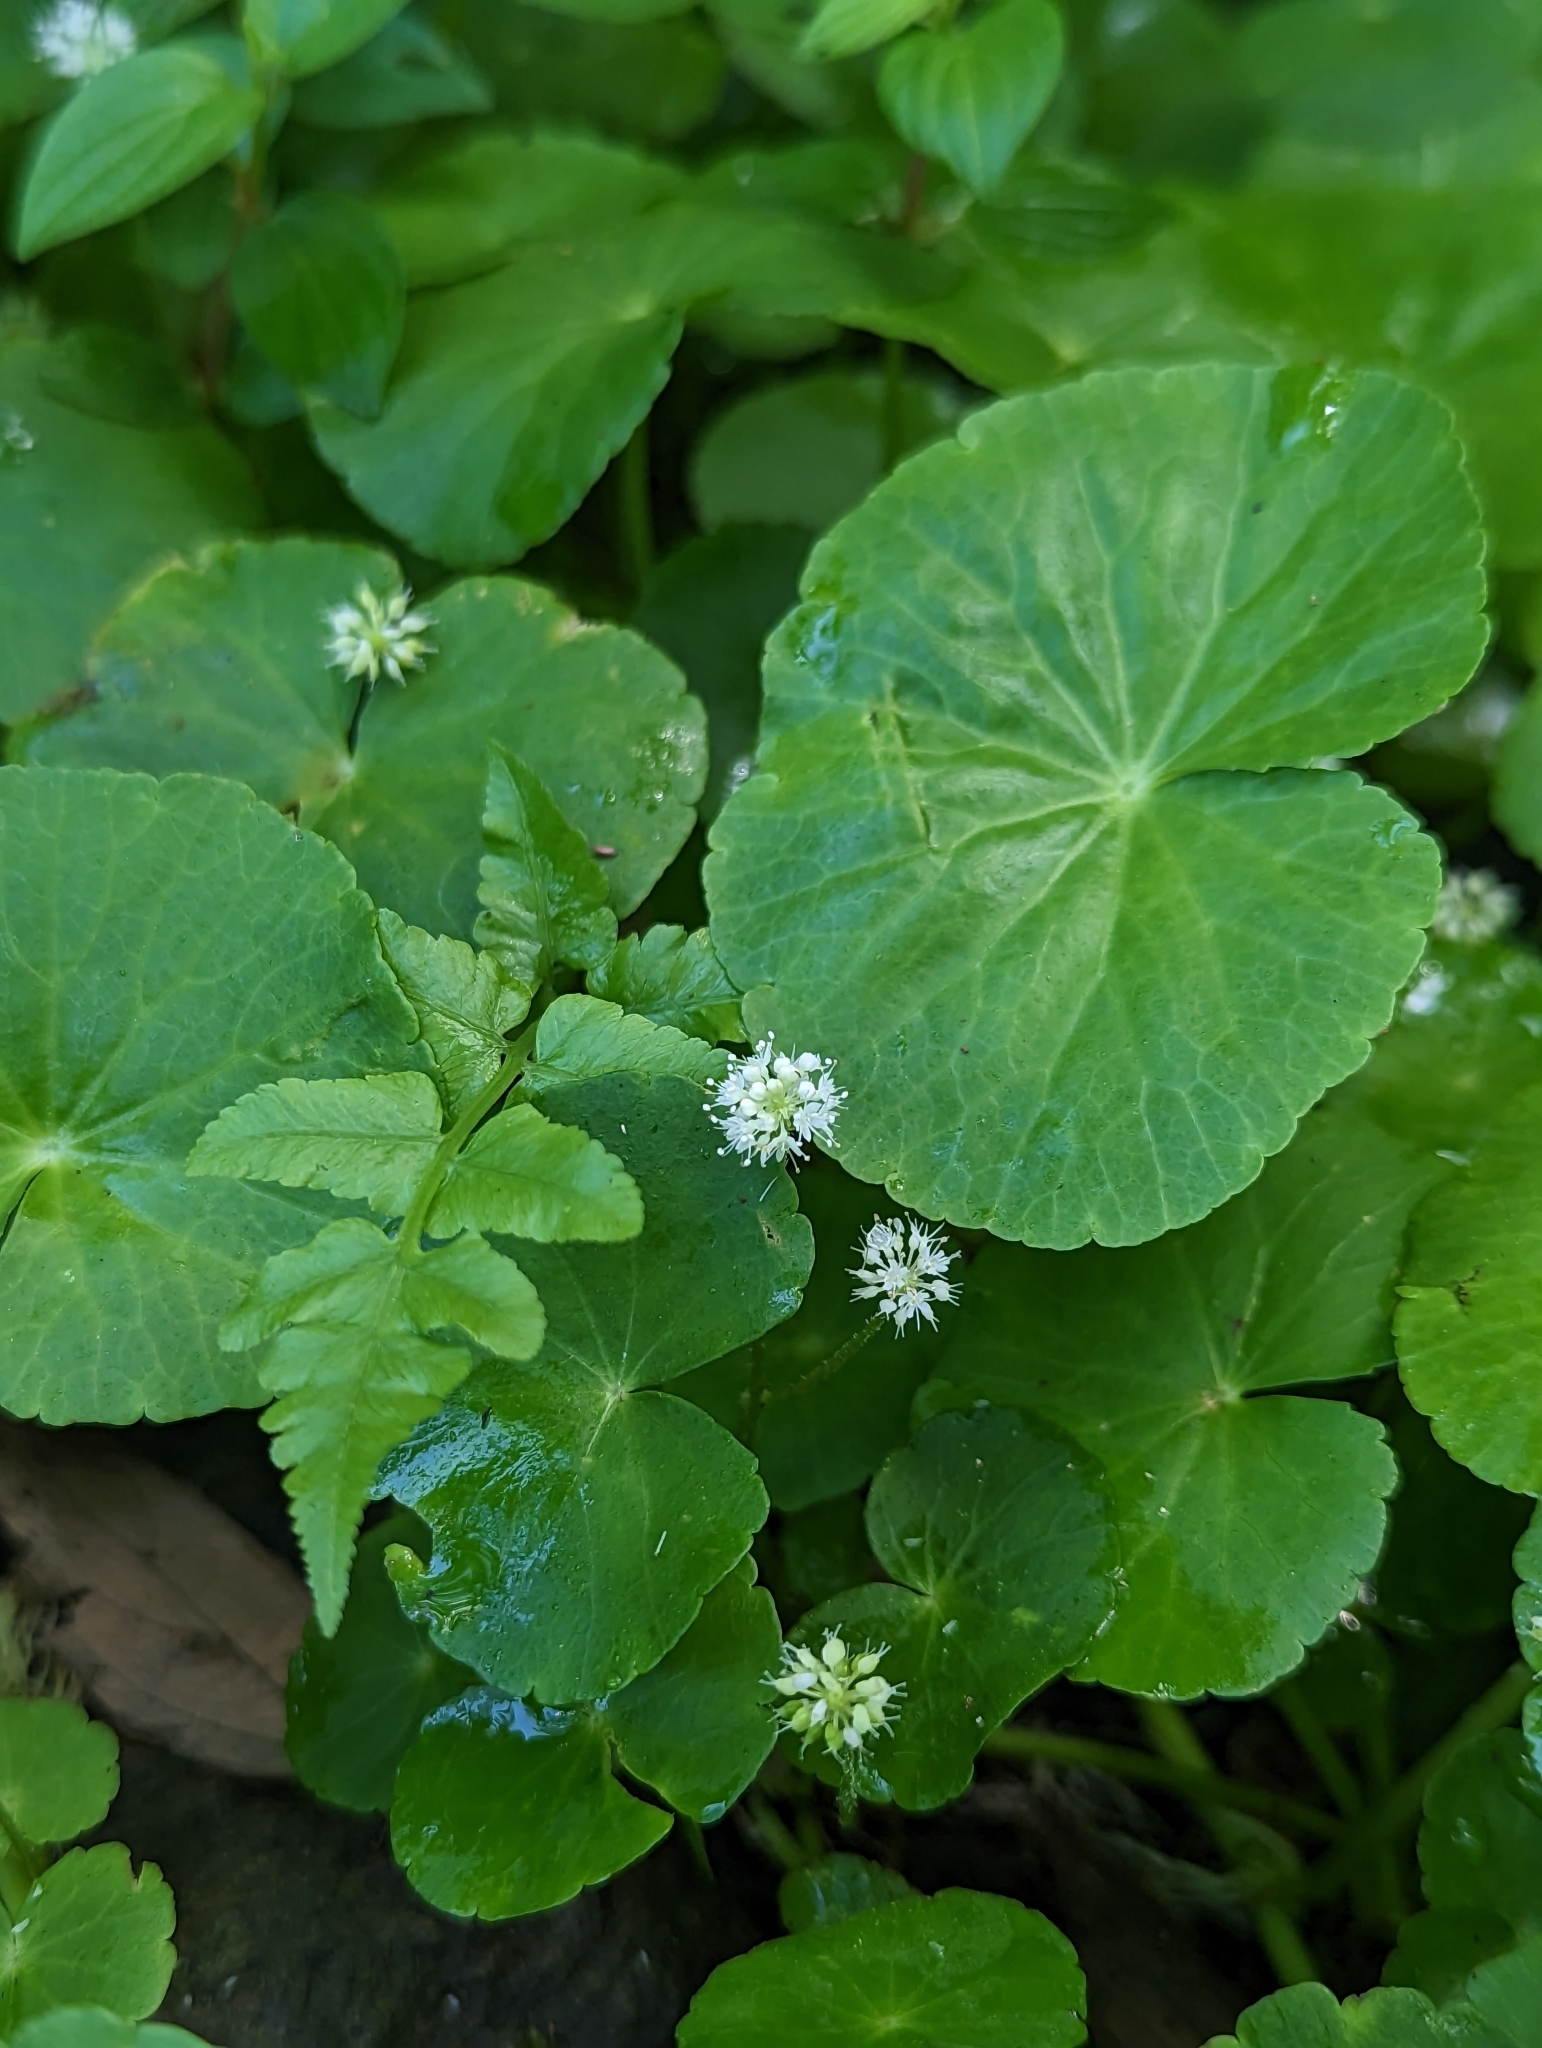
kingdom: Plantae
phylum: Tracheophyta
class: Magnoliopsida
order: Apiales
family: Araliaceae
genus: Hydrocotyle
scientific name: Hydrocotyle leucocephala
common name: Brazilian pennywort
